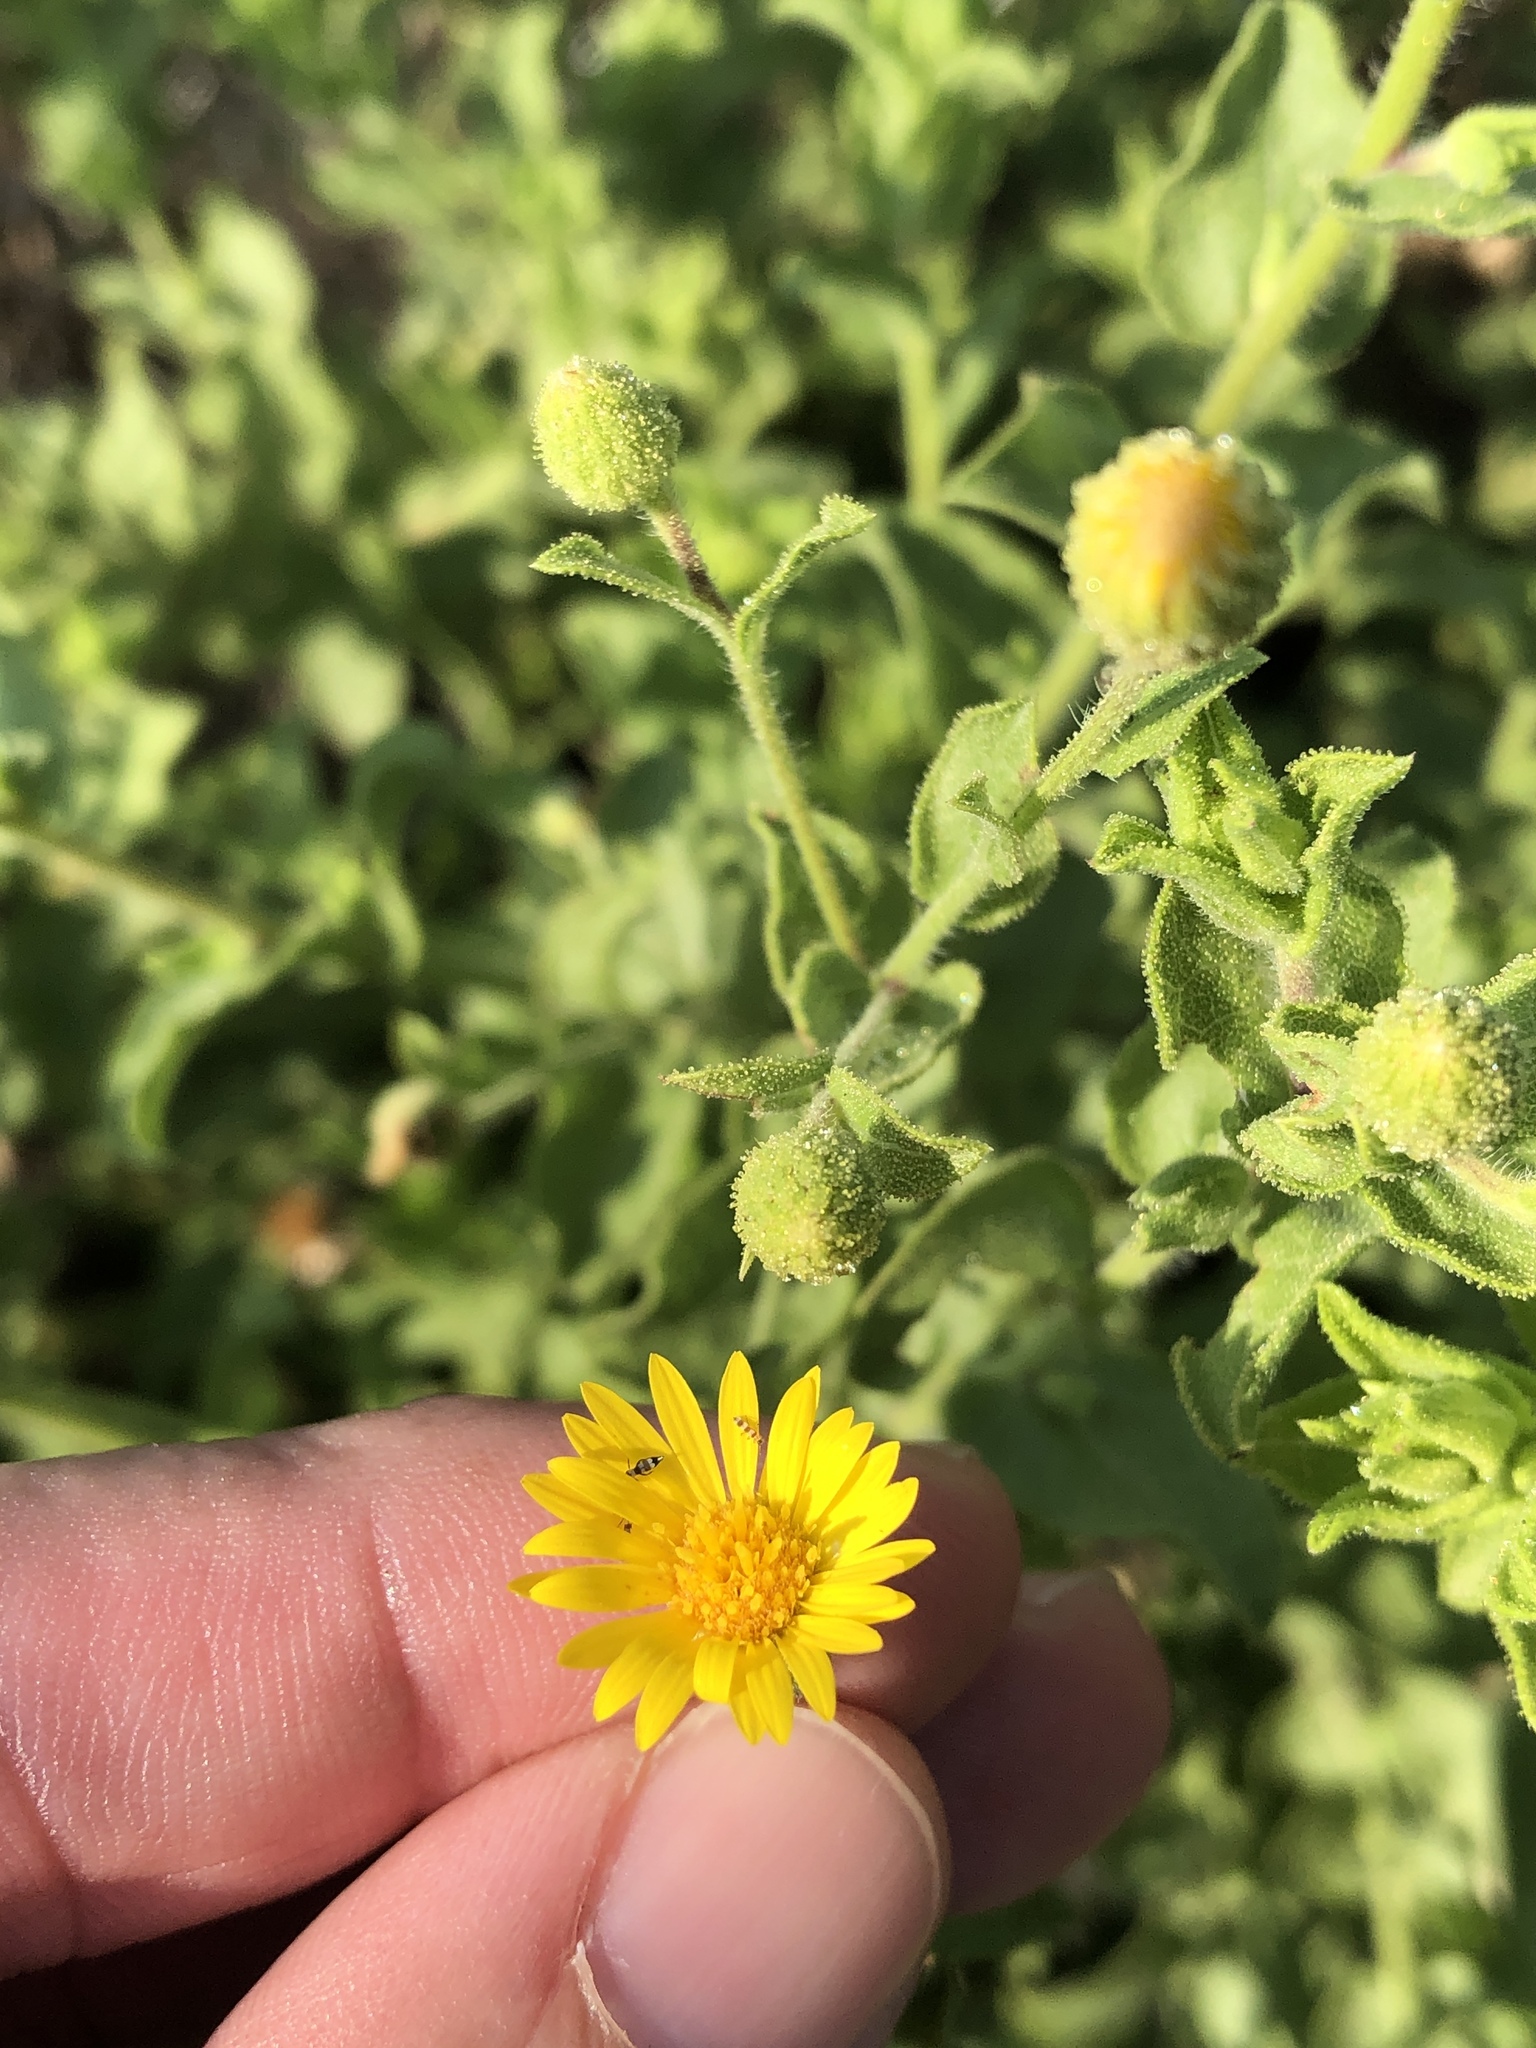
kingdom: Plantae
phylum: Tracheophyta
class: Magnoliopsida
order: Asterales
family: Asteraceae
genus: Heterotheca
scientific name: Heterotheca subaxillaris
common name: Camphorweed
